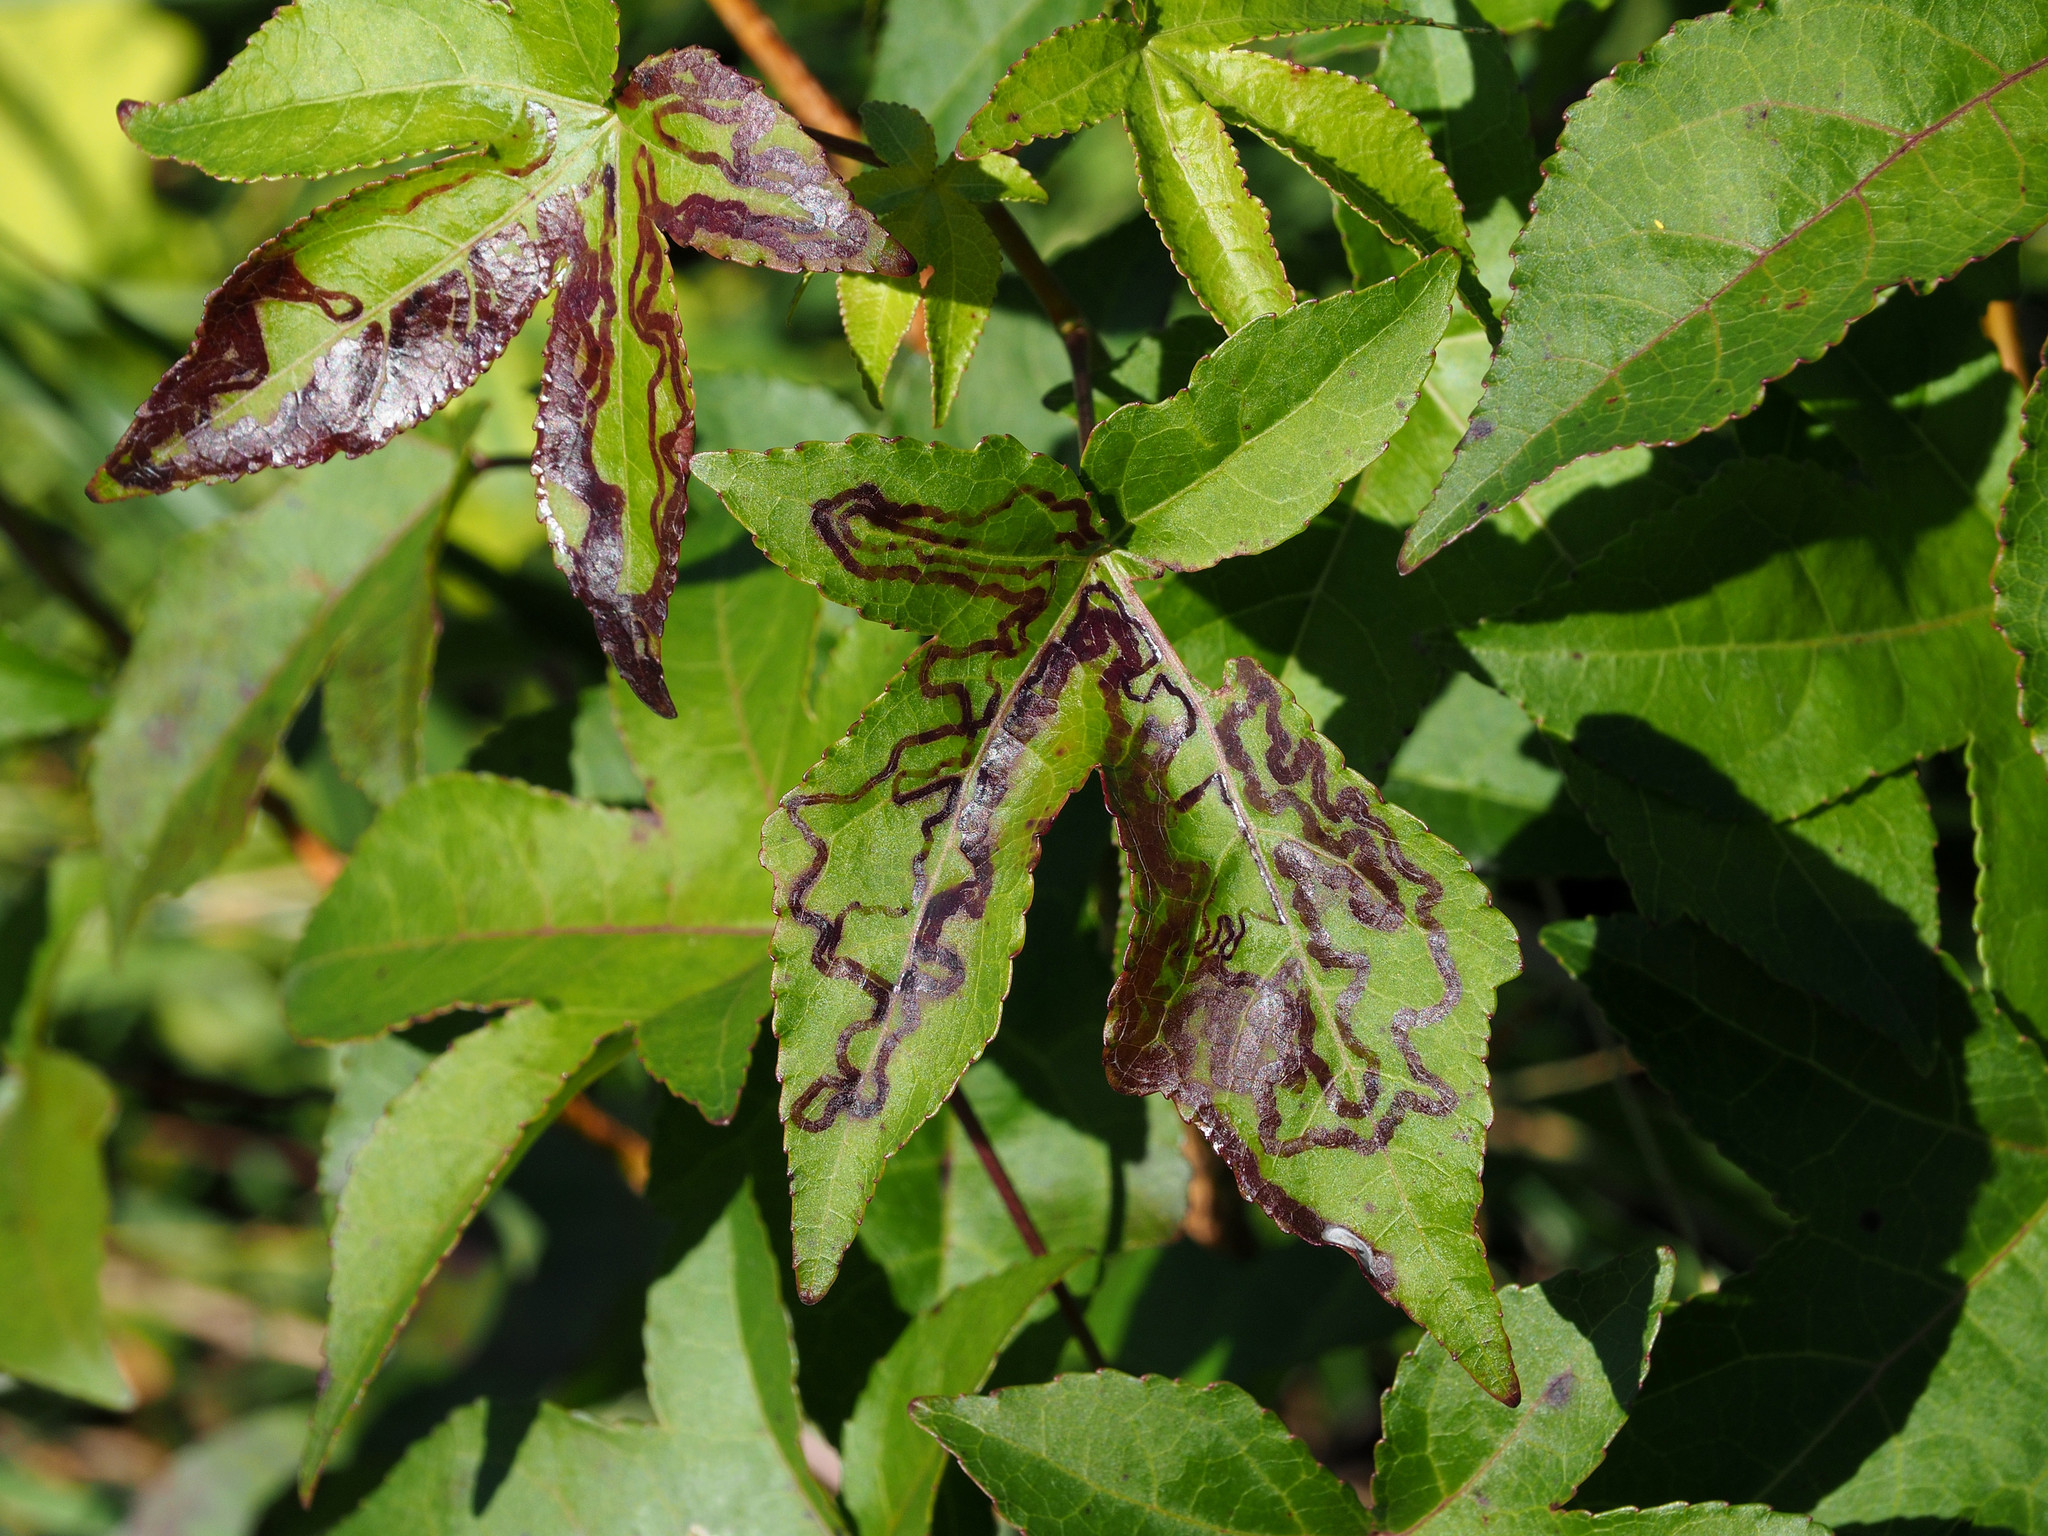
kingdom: Animalia
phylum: Arthropoda
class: Insecta
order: Lepidoptera
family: Gracillariidae
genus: Phyllocnistis
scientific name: Phyllocnistis liquidambarisella
